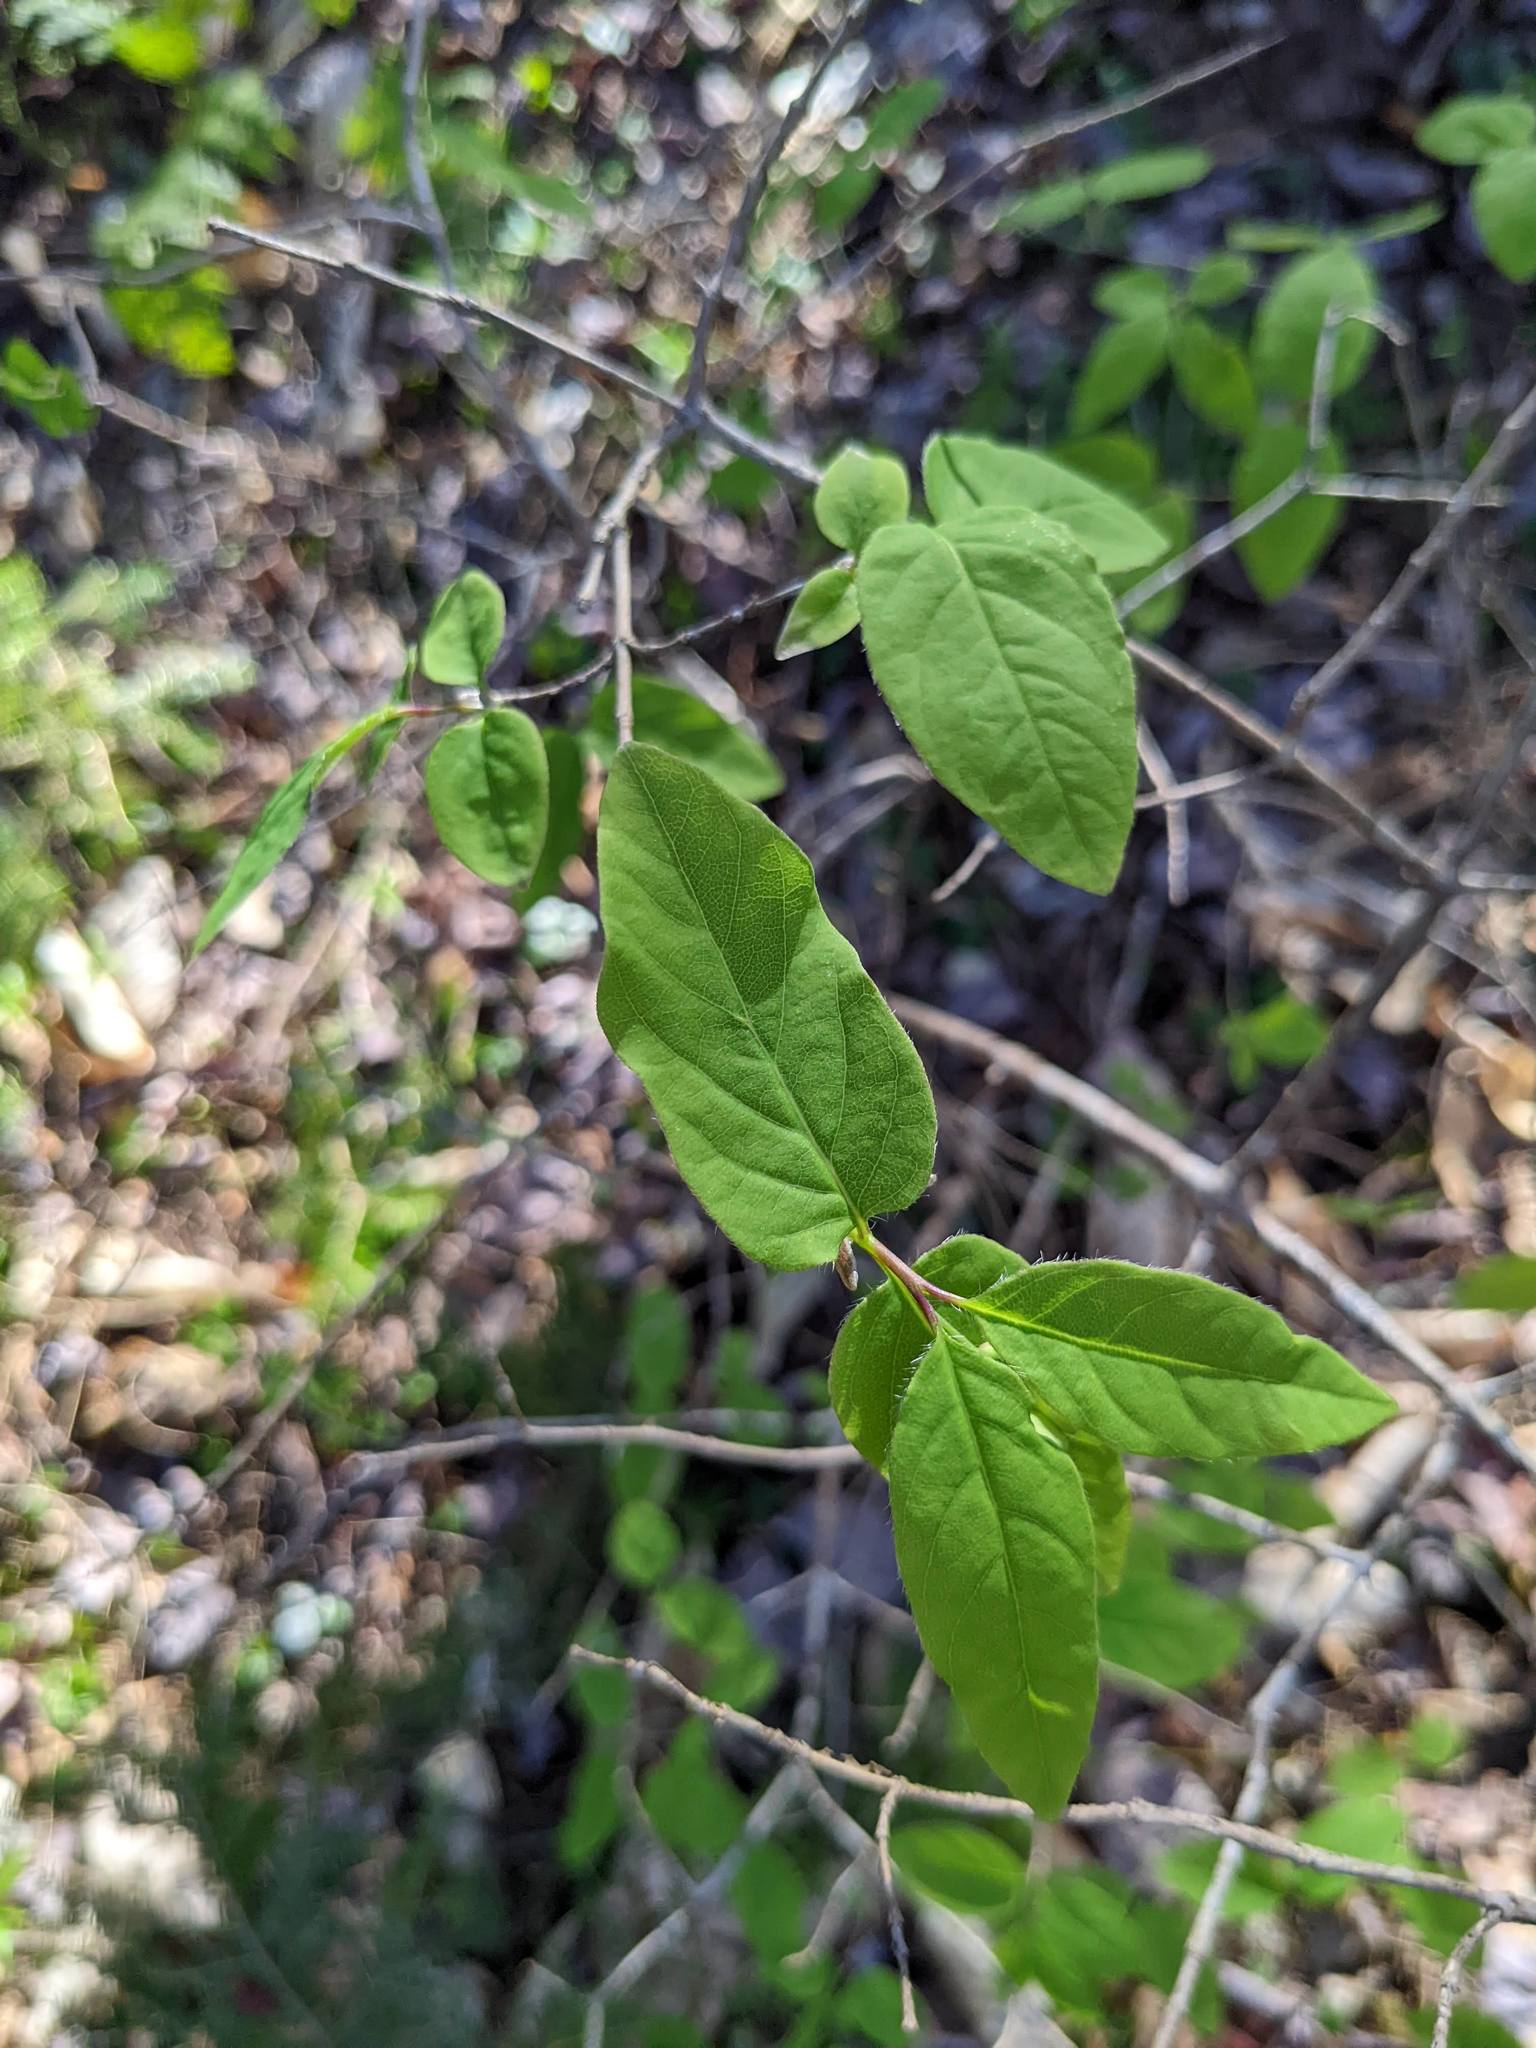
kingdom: Plantae
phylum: Tracheophyta
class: Magnoliopsida
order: Dipsacales
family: Caprifoliaceae
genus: Lonicera
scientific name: Lonicera canadensis
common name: American fly-honeysuckle
